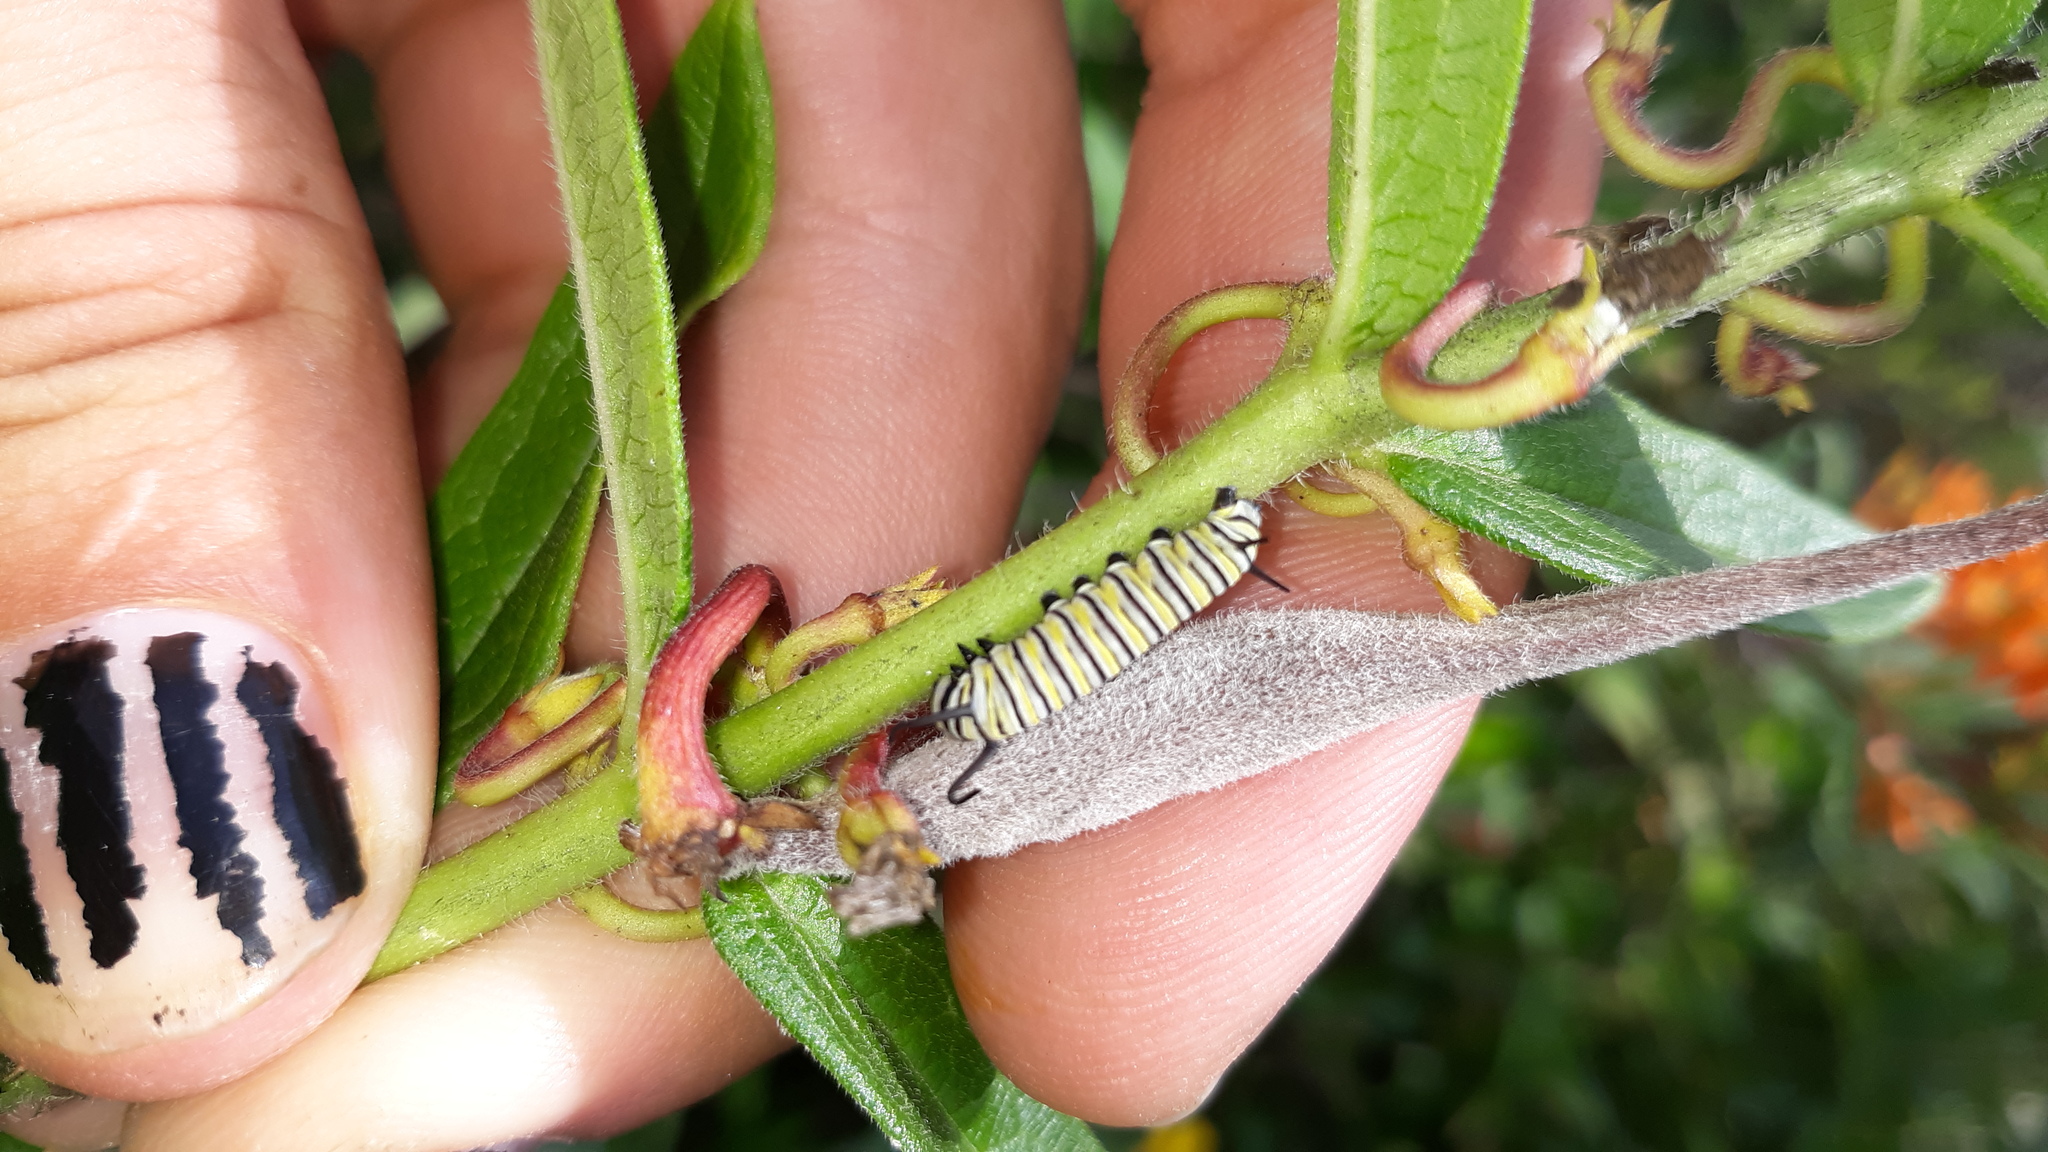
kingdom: Animalia
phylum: Arthropoda
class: Insecta
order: Lepidoptera
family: Nymphalidae
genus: Danaus
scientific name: Danaus plexippus
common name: Monarch
